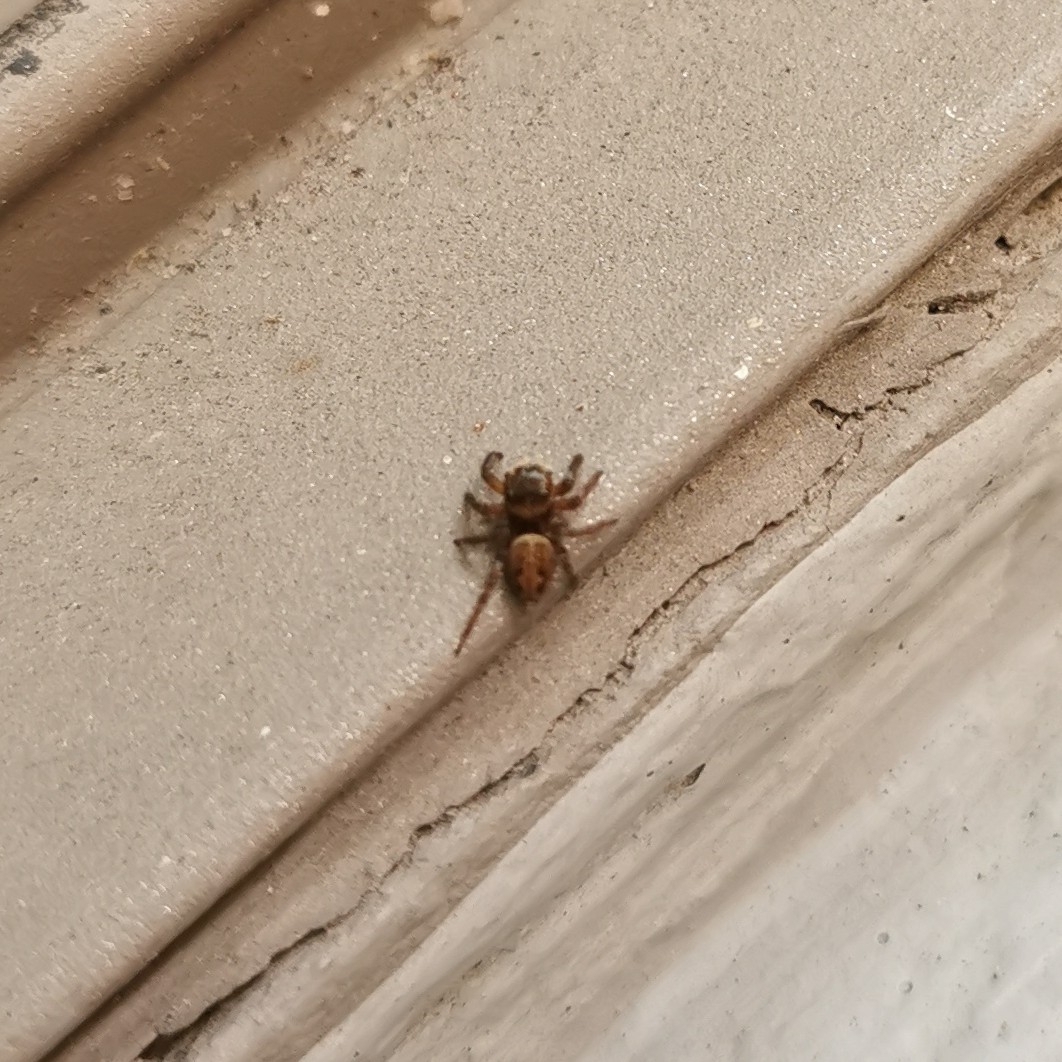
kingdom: Animalia
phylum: Arthropoda
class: Arachnida
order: Araneae
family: Salticidae
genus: Hasarius
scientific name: Hasarius adansoni
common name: Jumping spider
